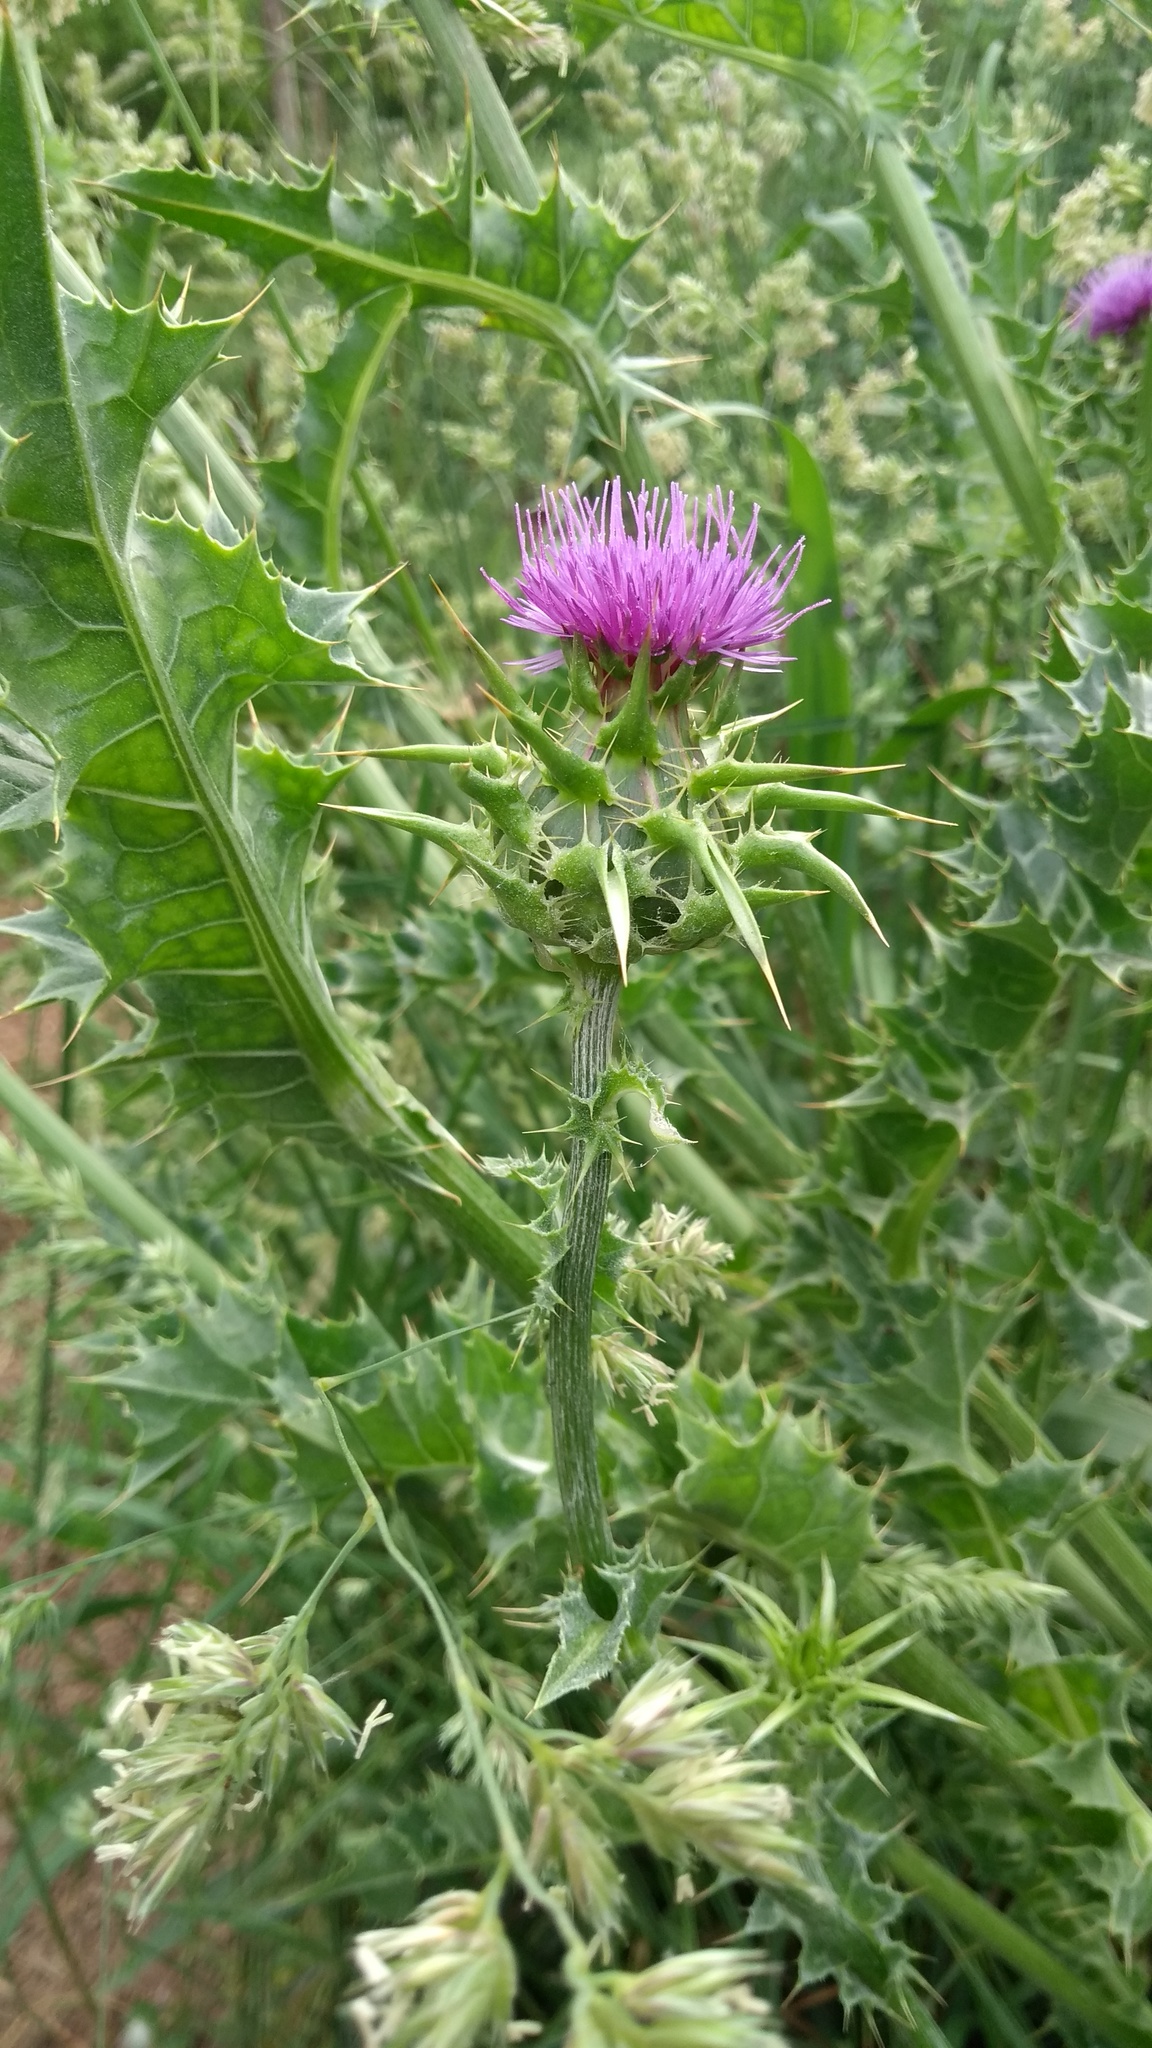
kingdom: Plantae
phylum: Tracheophyta
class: Magnoliopsida
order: Asterales
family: Asteraceae
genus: Silybum
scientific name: Silybum marianum
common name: Milk thistle
